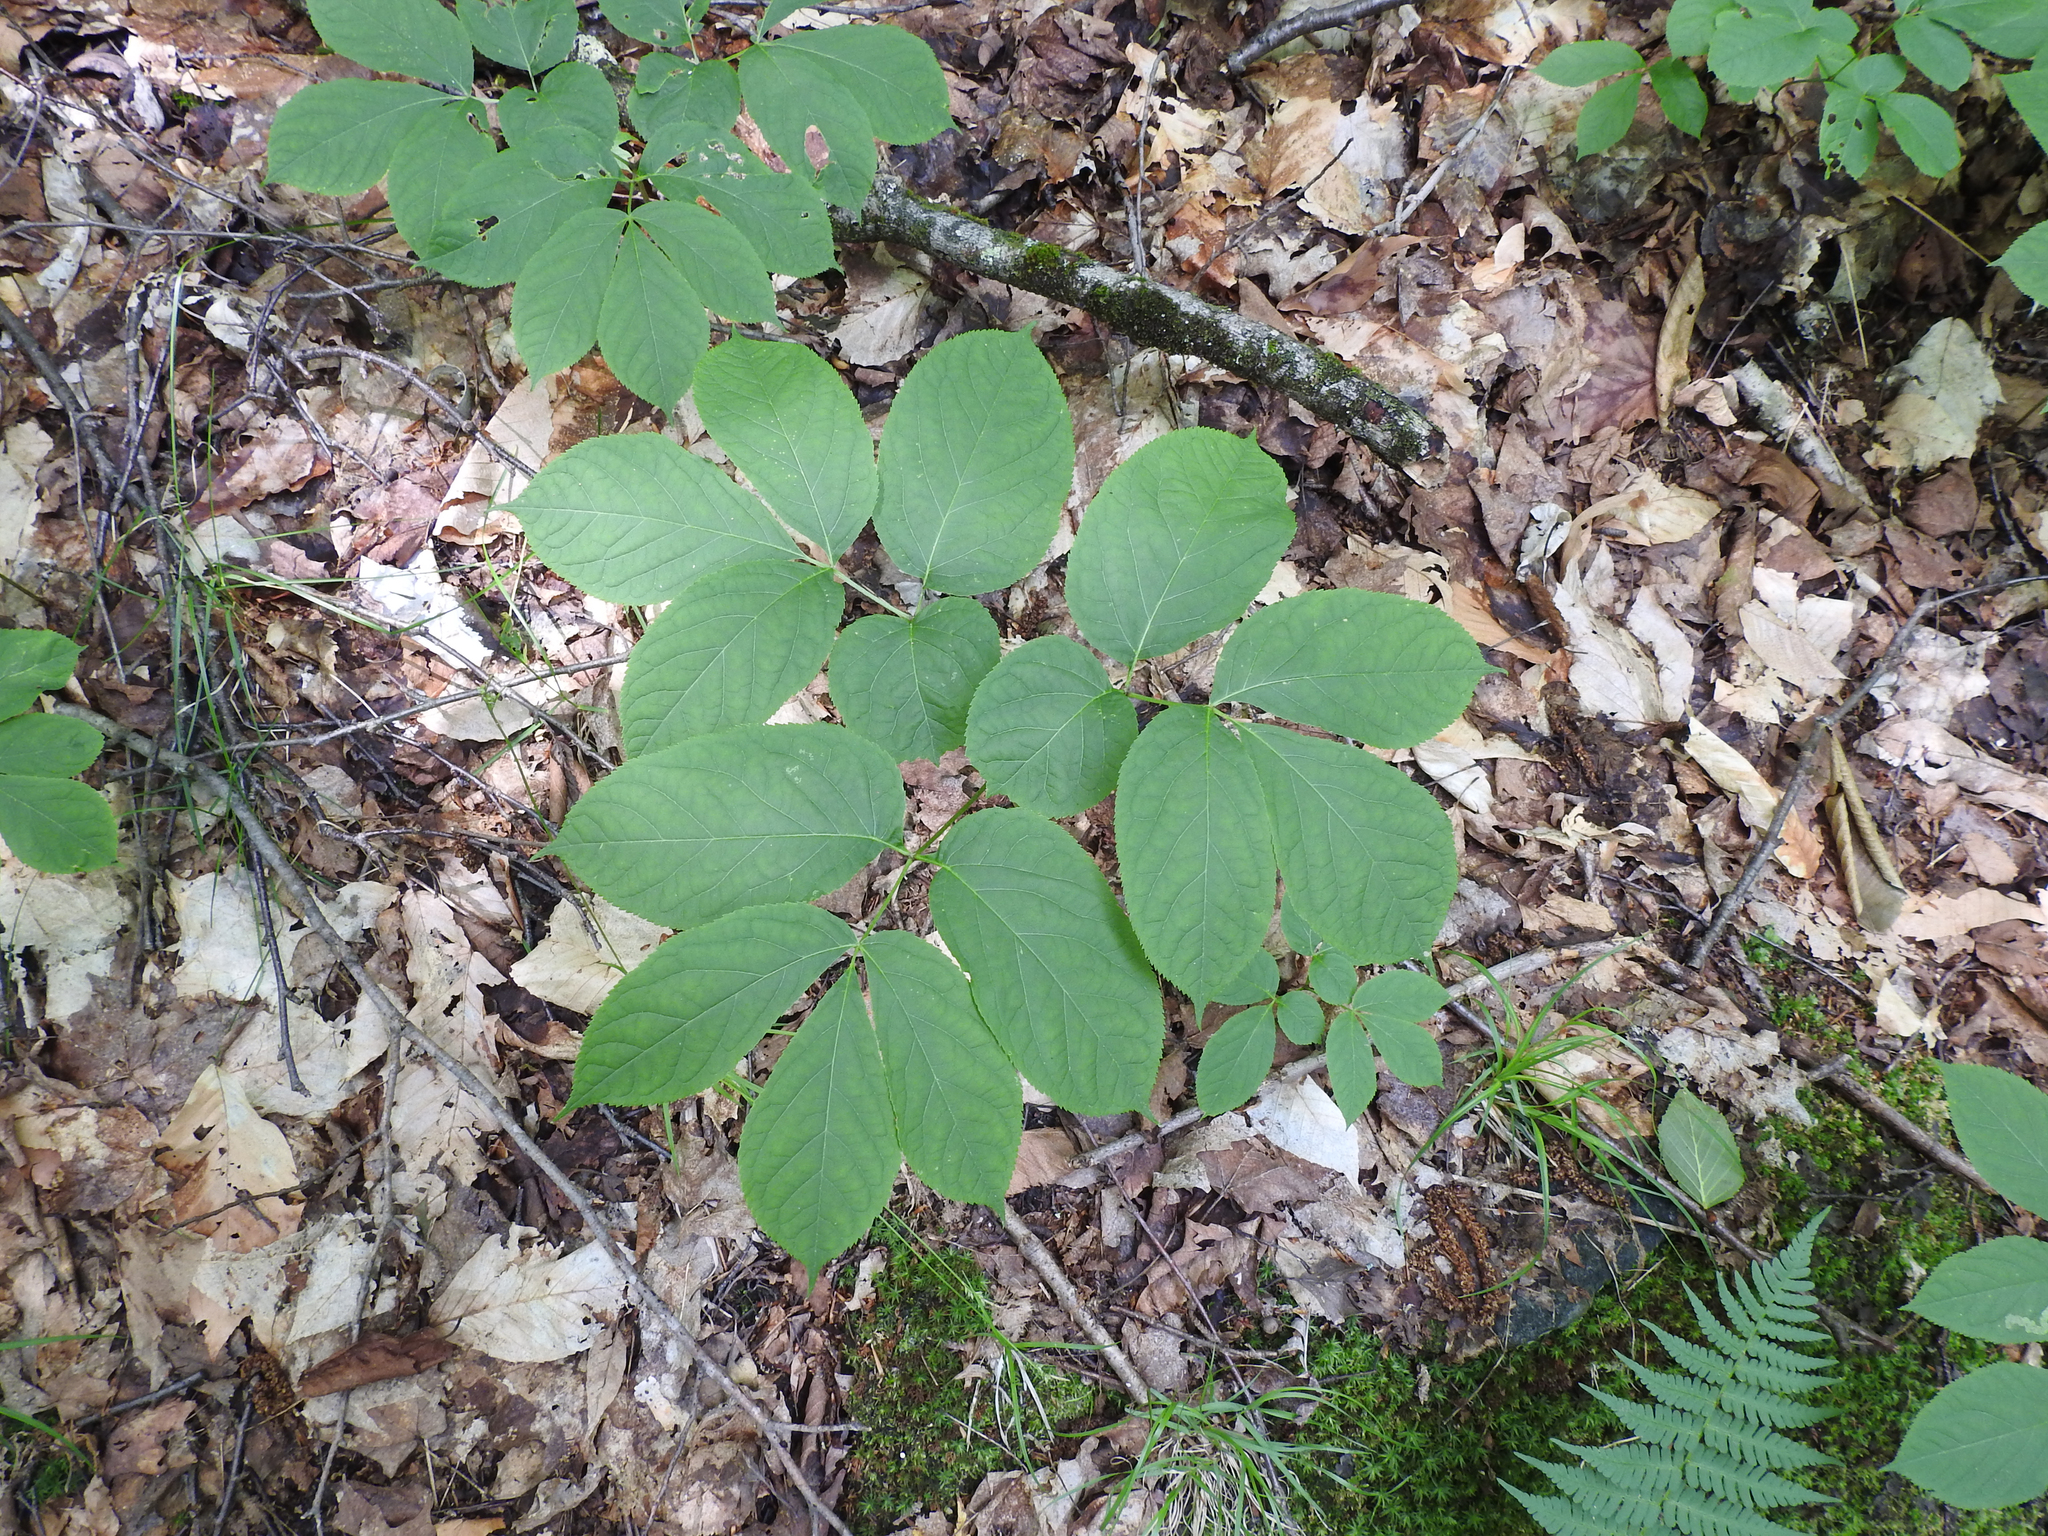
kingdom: Plantae
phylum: Tracheophyta
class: Magnoliopsida
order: Apiales
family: Araliaceae
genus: Aralia
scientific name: Aralia nudicaulis
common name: Wild sarsaparilla
